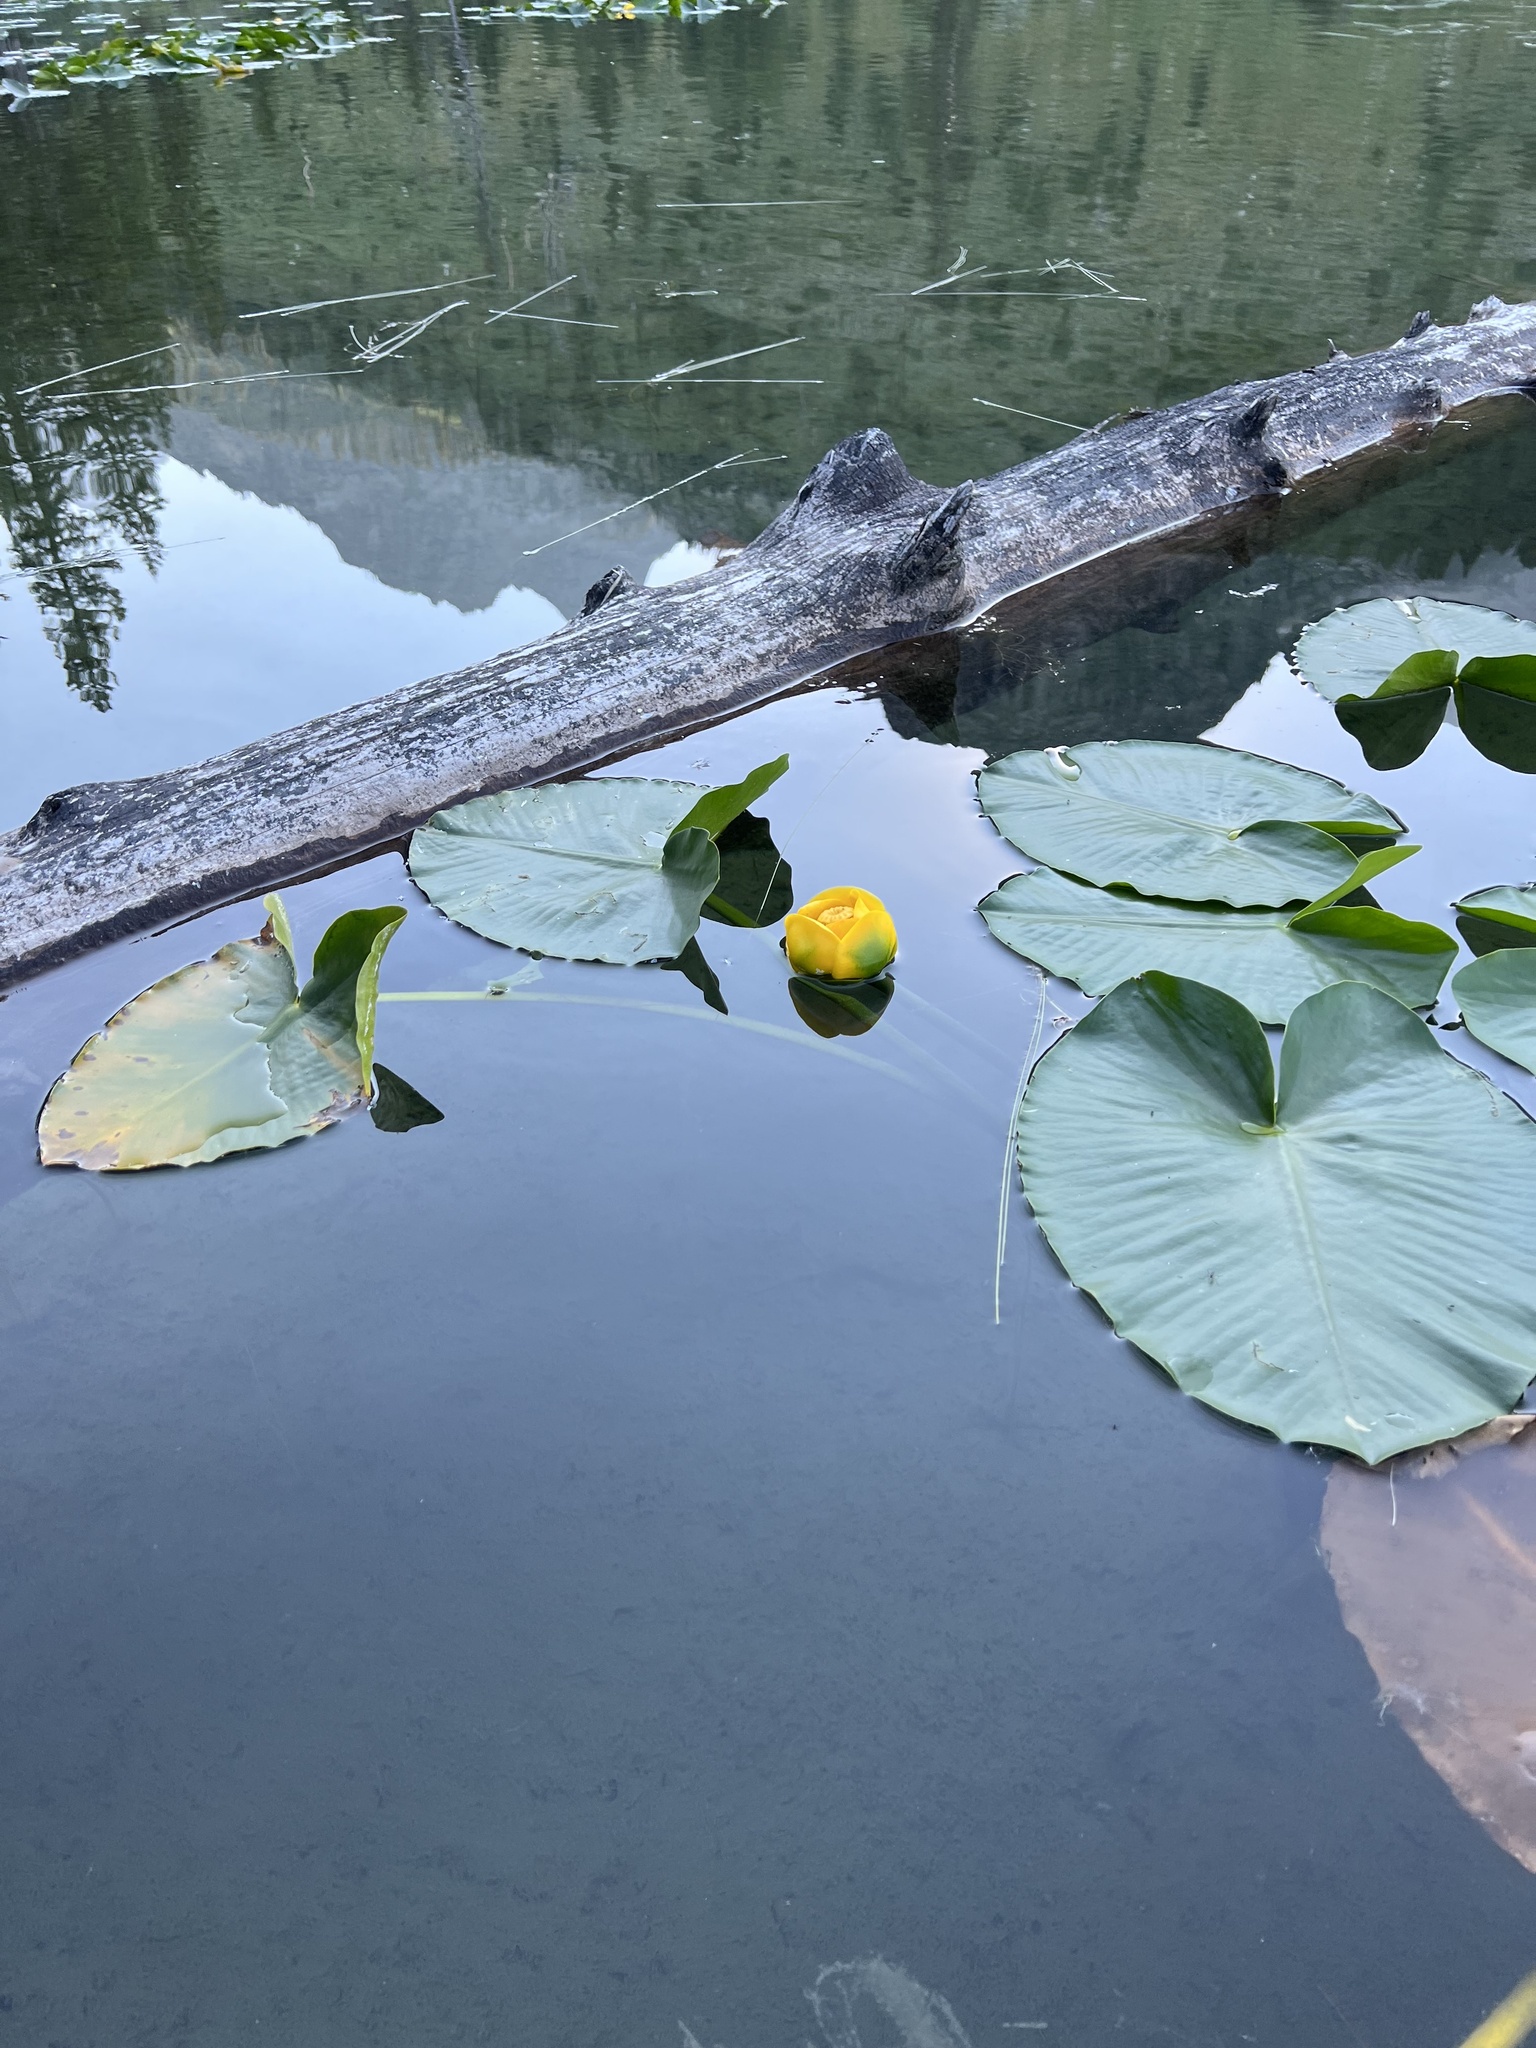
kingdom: Plantae
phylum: Tracheophyta
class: Magnoliopsida
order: Nymphaeales
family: Nymphaeaceae
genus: Nuphar
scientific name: Nuphar polysepala
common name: Rocky mountain cow-lily
